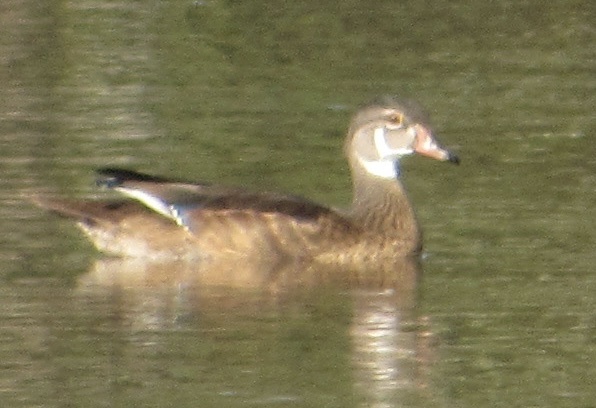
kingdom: Animalia
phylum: Chordata
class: Aves
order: Anseriformes
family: Anatidae
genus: Aix
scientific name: Aix sponsa
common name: Wood duck
